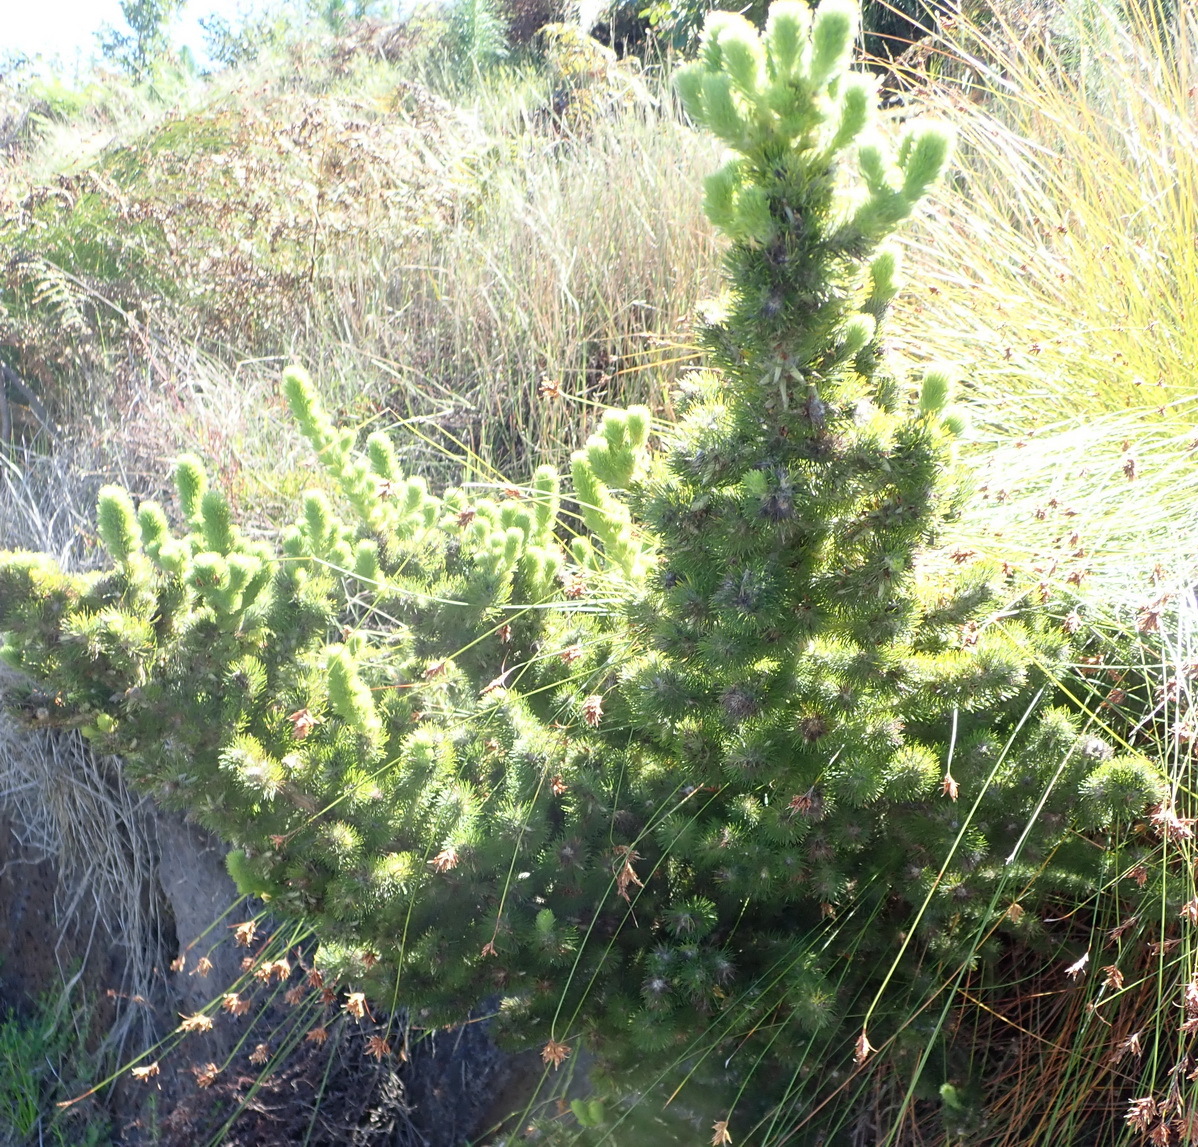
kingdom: Plantae
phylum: Tracheophyta
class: Magnoliopsida
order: Fabales
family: Fabaceae
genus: Aspalathus
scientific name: Aspalathus alopecurus
